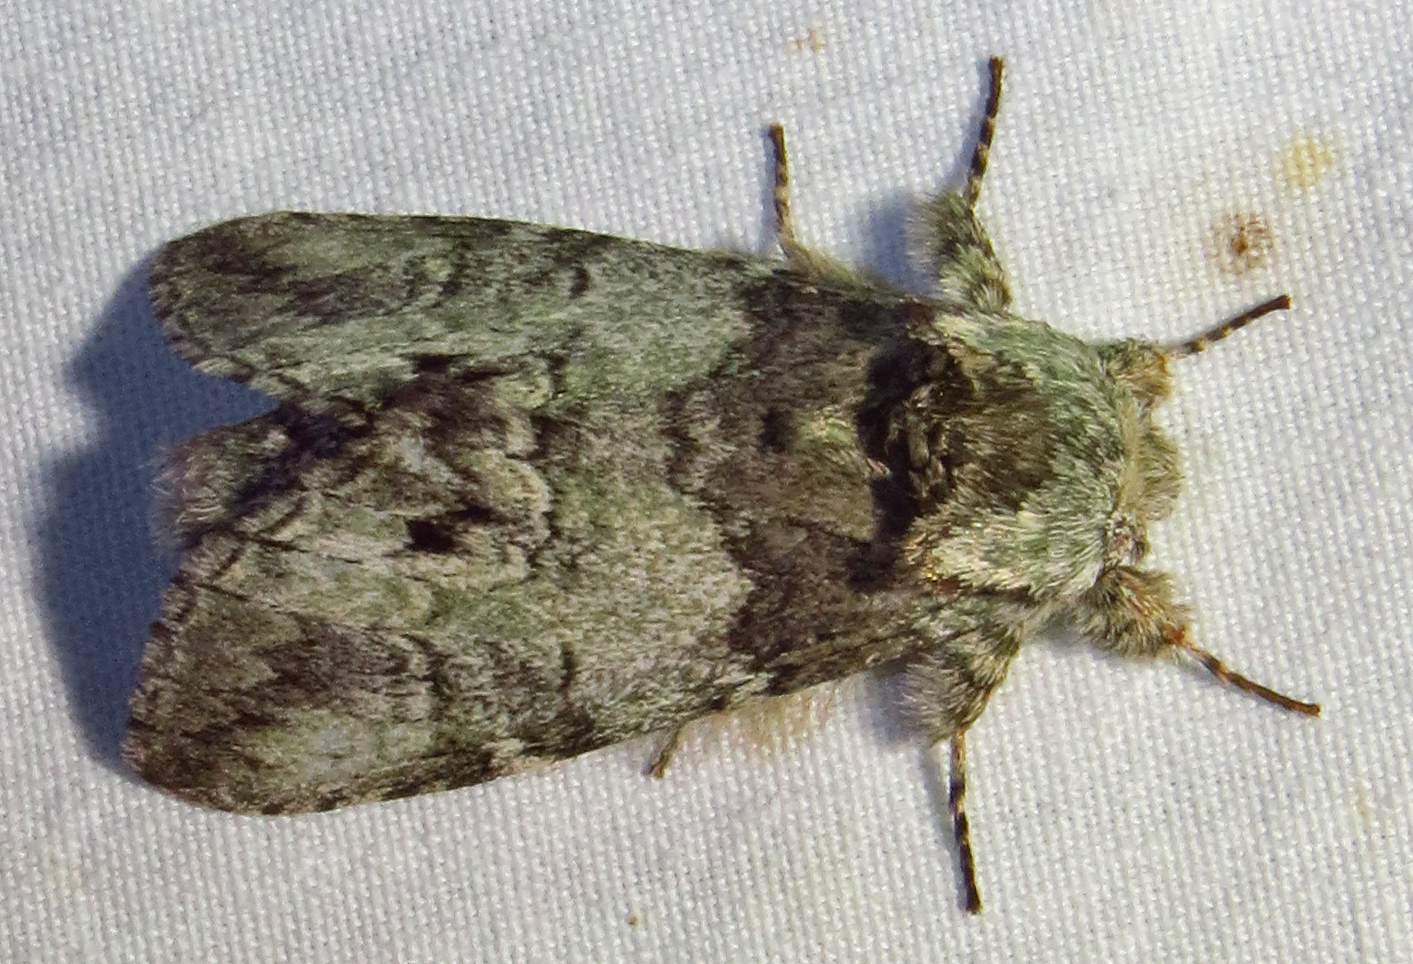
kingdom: Animalia
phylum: Arthropoda
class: Insecta
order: Lepidoptera
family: Notodontidae
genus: Macrurocampa
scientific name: Macrurocampa marthesia
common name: Mottled prominent
